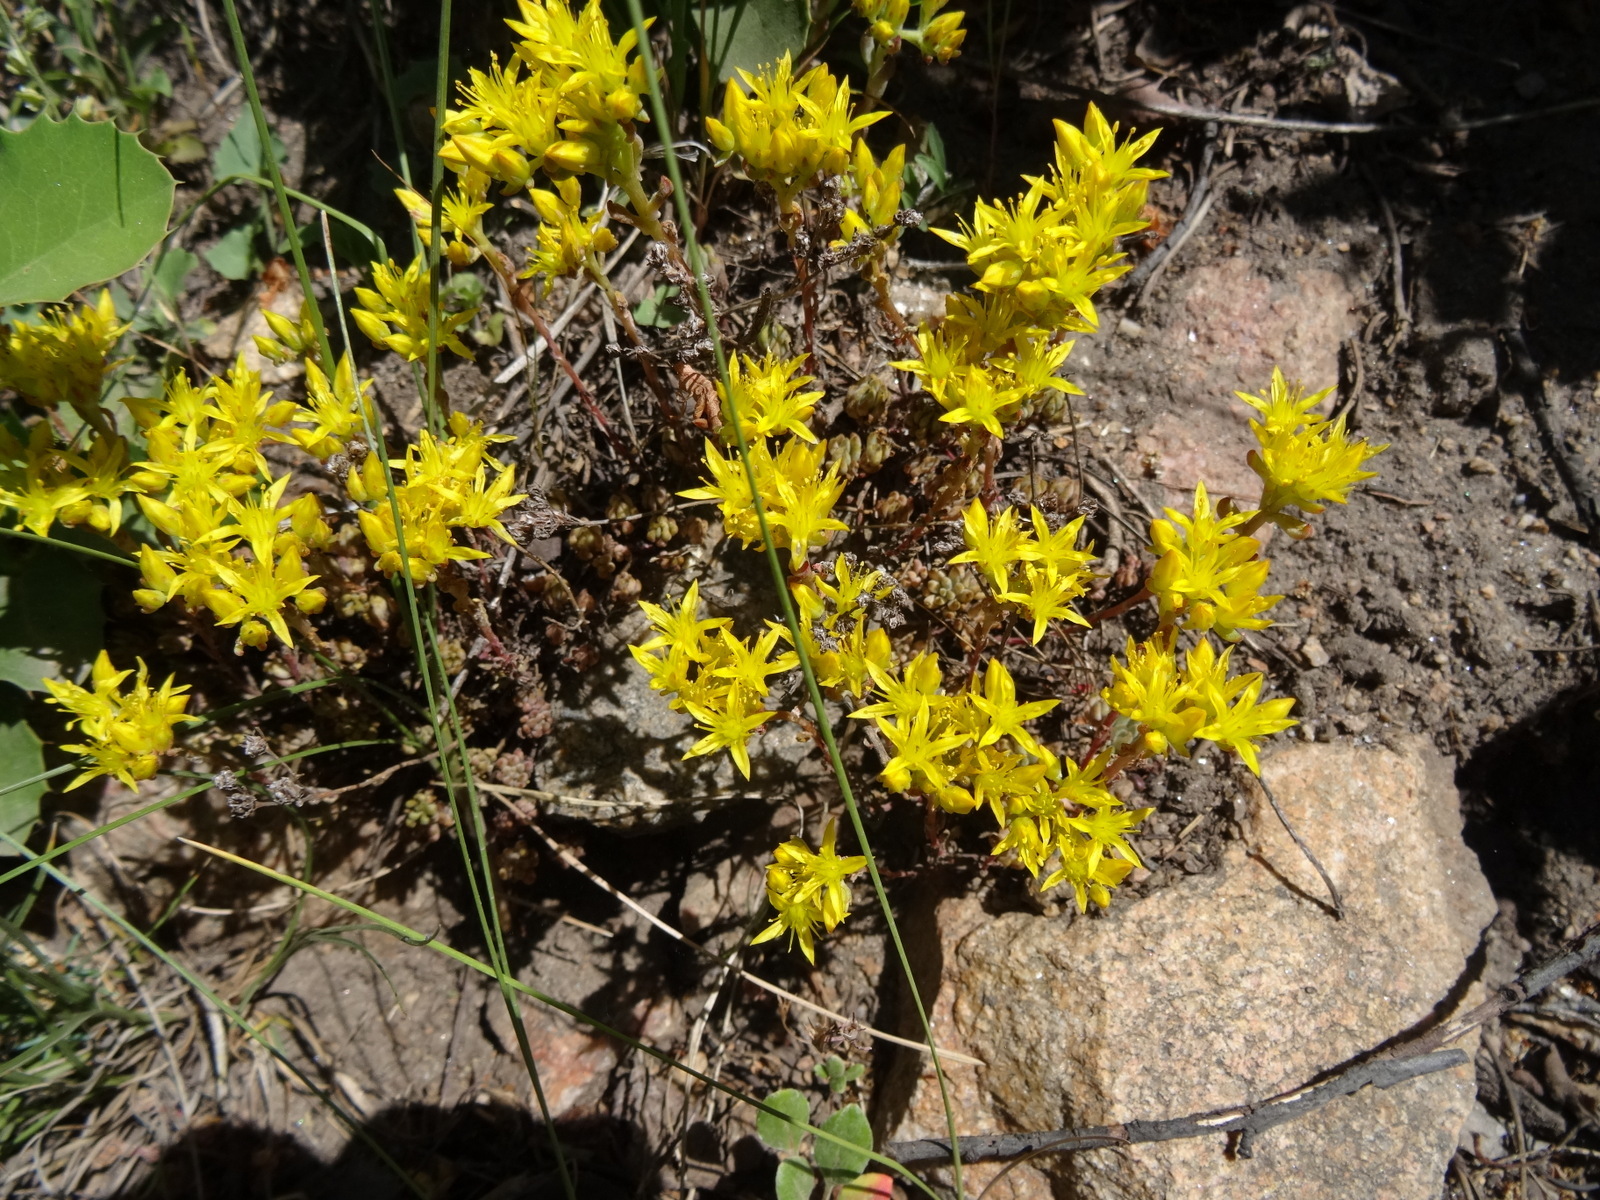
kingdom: Plantae
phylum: Tracheophyta
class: Magnoliopsida
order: Saxifragales
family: Crassulaceae
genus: Sedum
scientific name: Sedum lanceolatum
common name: Common stonecrop
